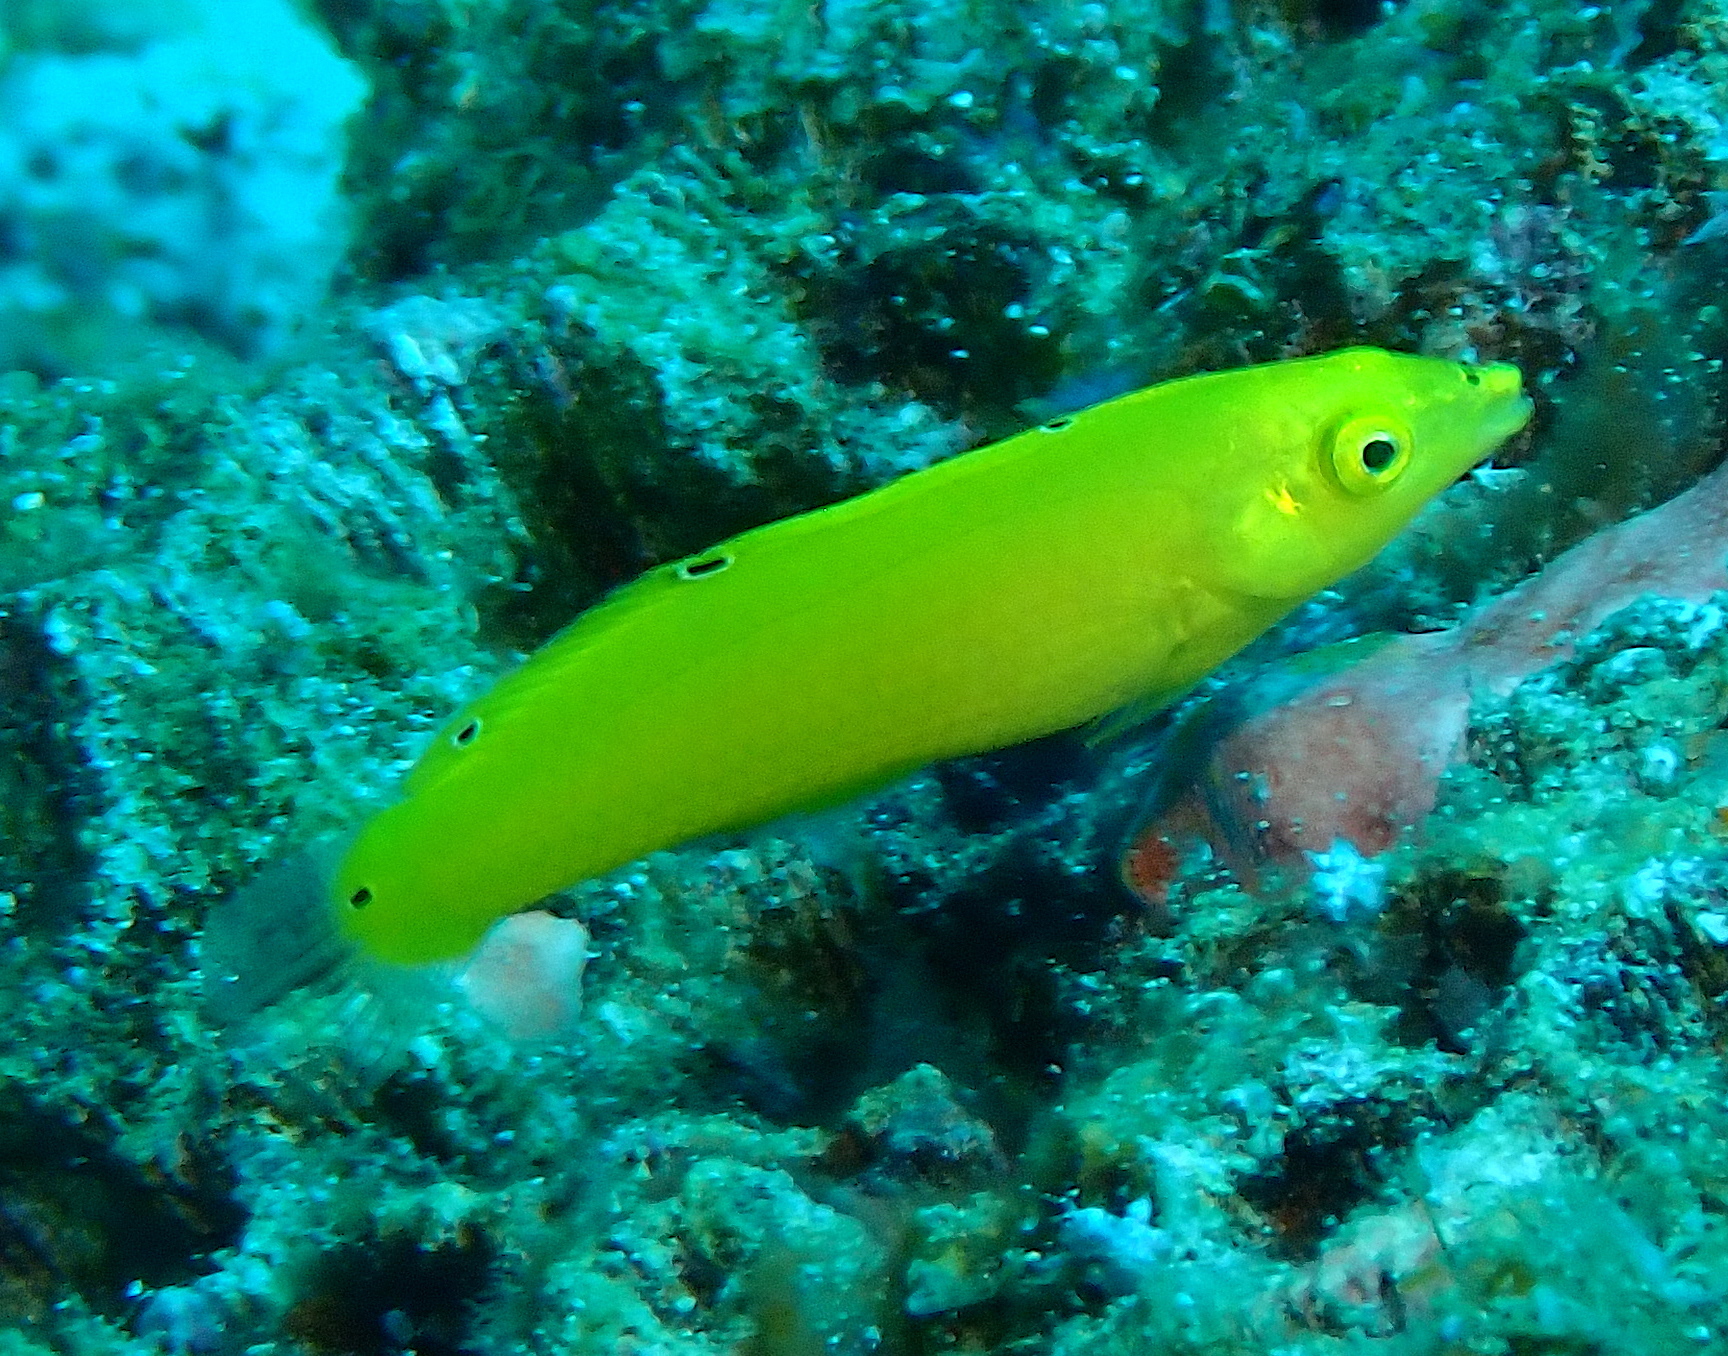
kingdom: Animalia
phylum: Chordata
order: Perciformes
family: Labridae
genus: Halichoeres
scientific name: Halichoeres chrysus
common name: Canary wrasse
